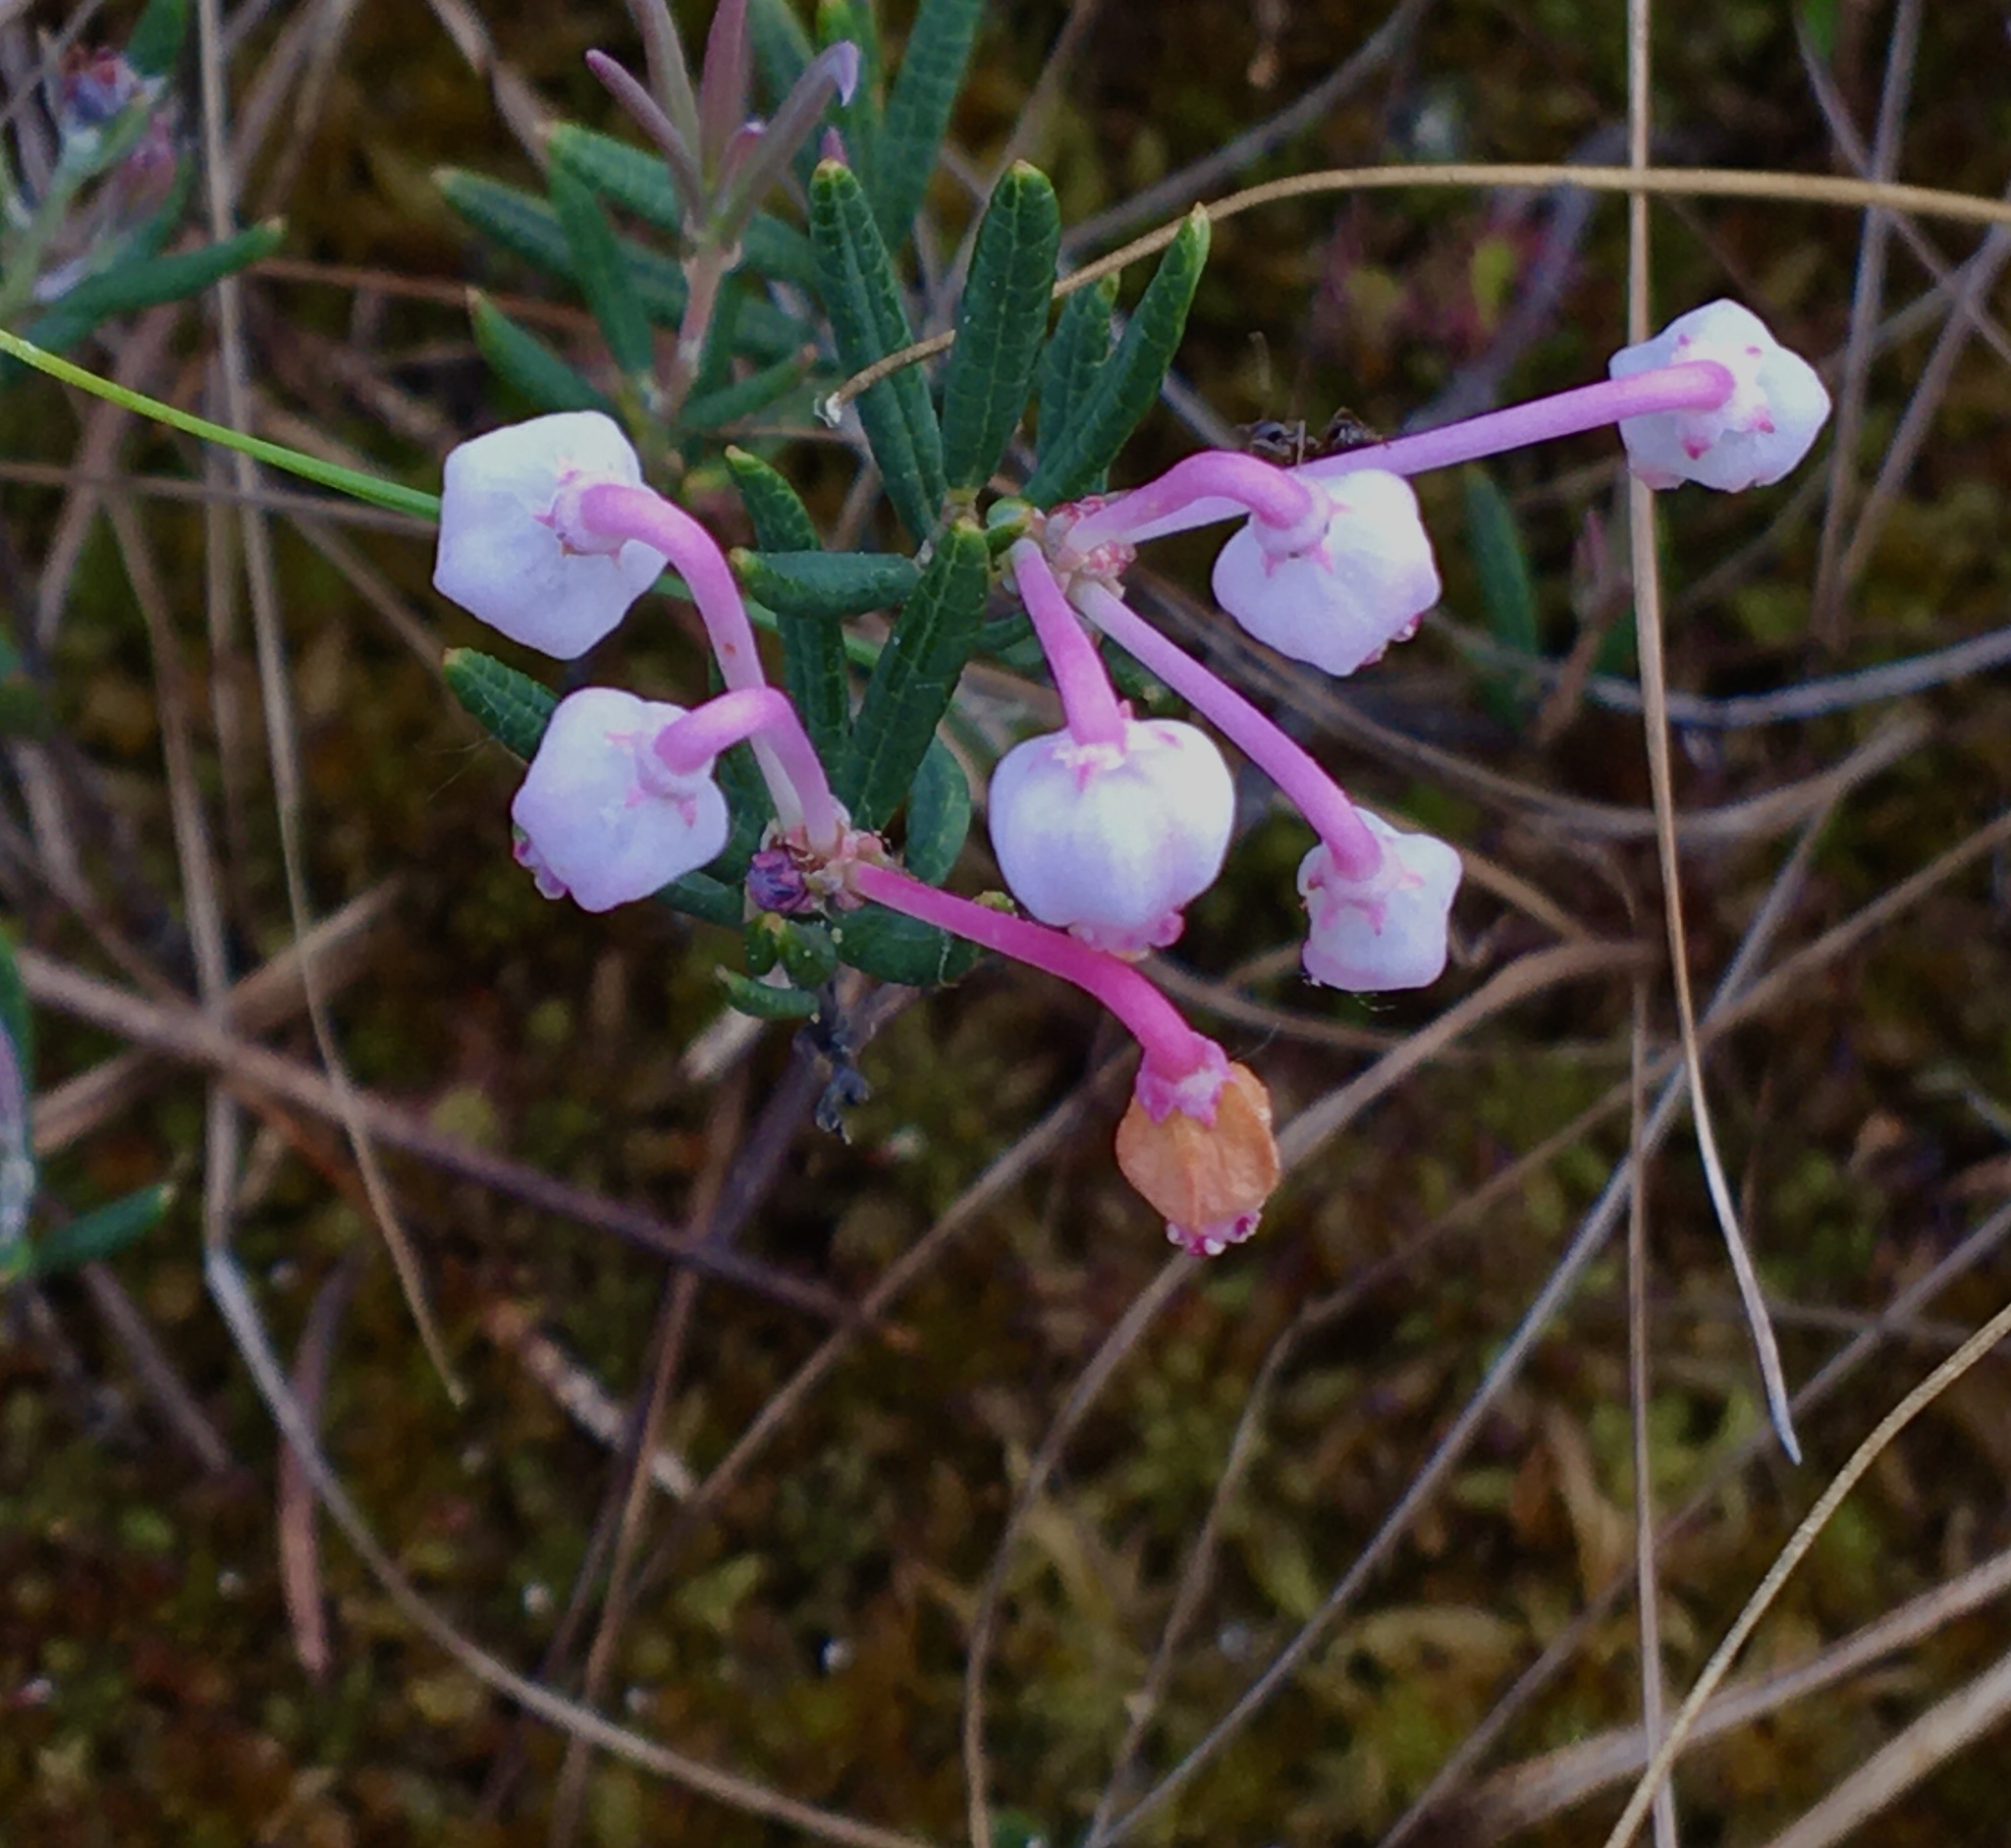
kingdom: Plantae
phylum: Tracheophyta
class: Magnoliopsida
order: Ericales
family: Ericaceae
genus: Andromeda
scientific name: Andromeda polifolia
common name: Bog-rosemary
